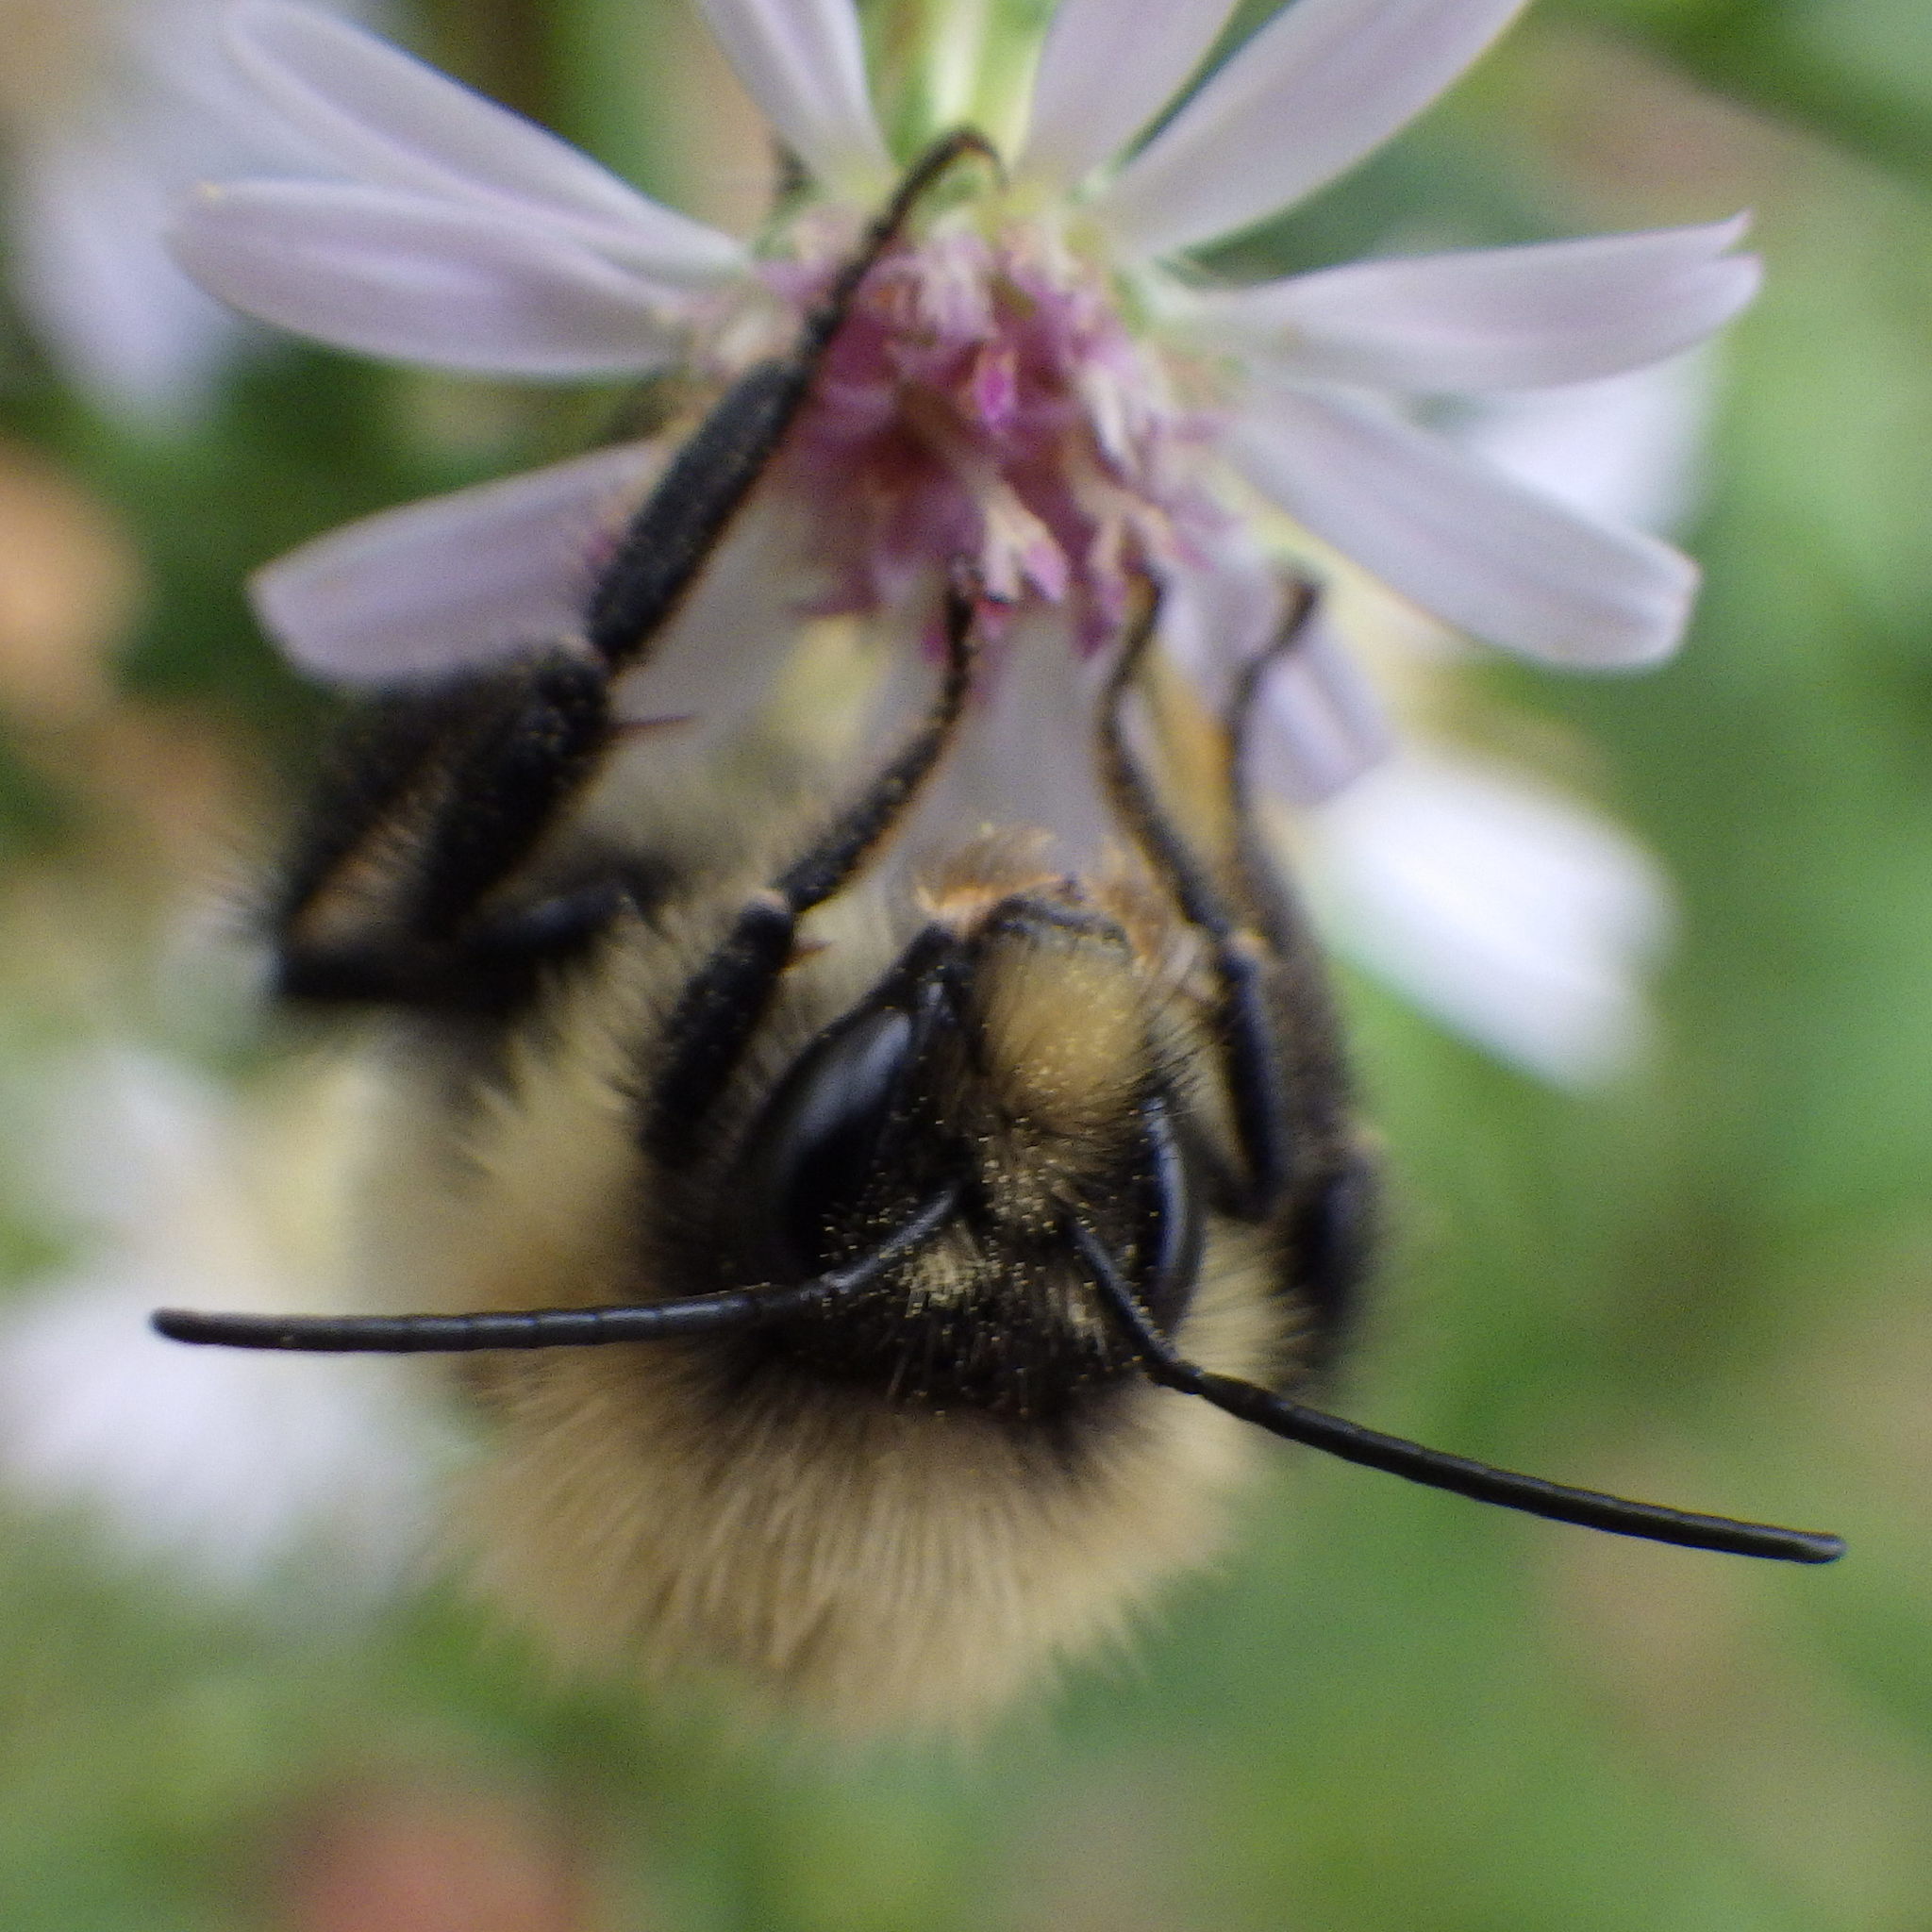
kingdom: Animalia
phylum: Arthropoda
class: Insecta
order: Hymenoptera
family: Apidae
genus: Bombus
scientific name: Bombus vagans
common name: Half-black bumble bee
